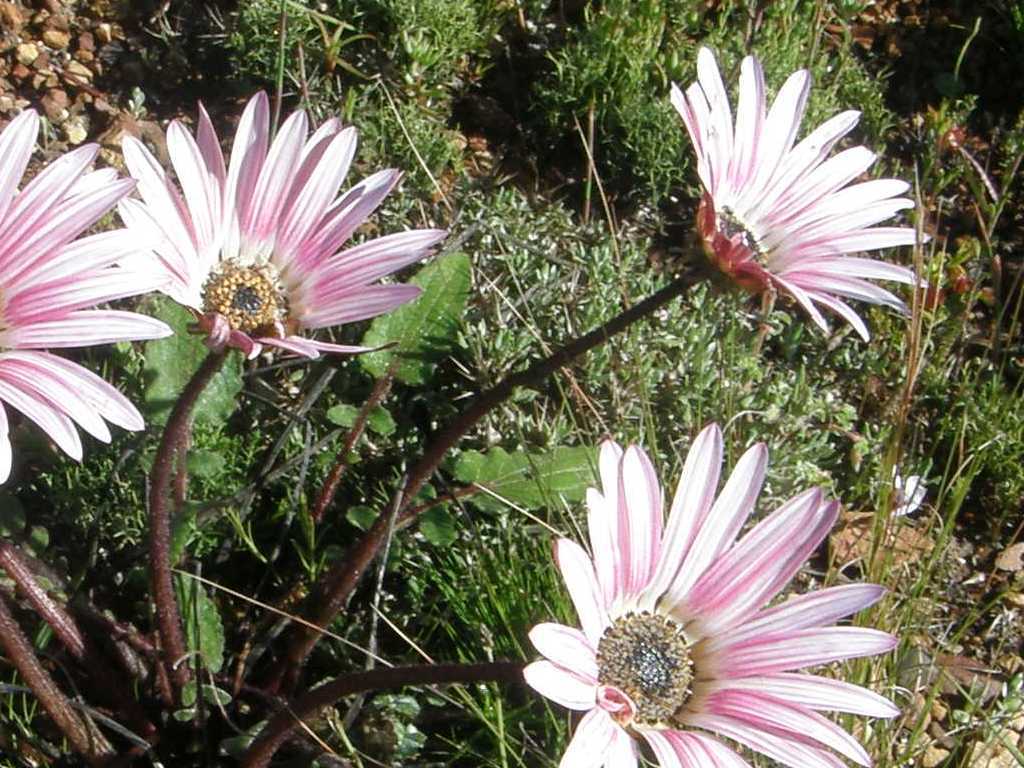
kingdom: Plantae
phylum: Tracheophyta
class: Magnoliopsida
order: Asterales
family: Asteraceae
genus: Arctotis
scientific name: Arctotis acaulis
